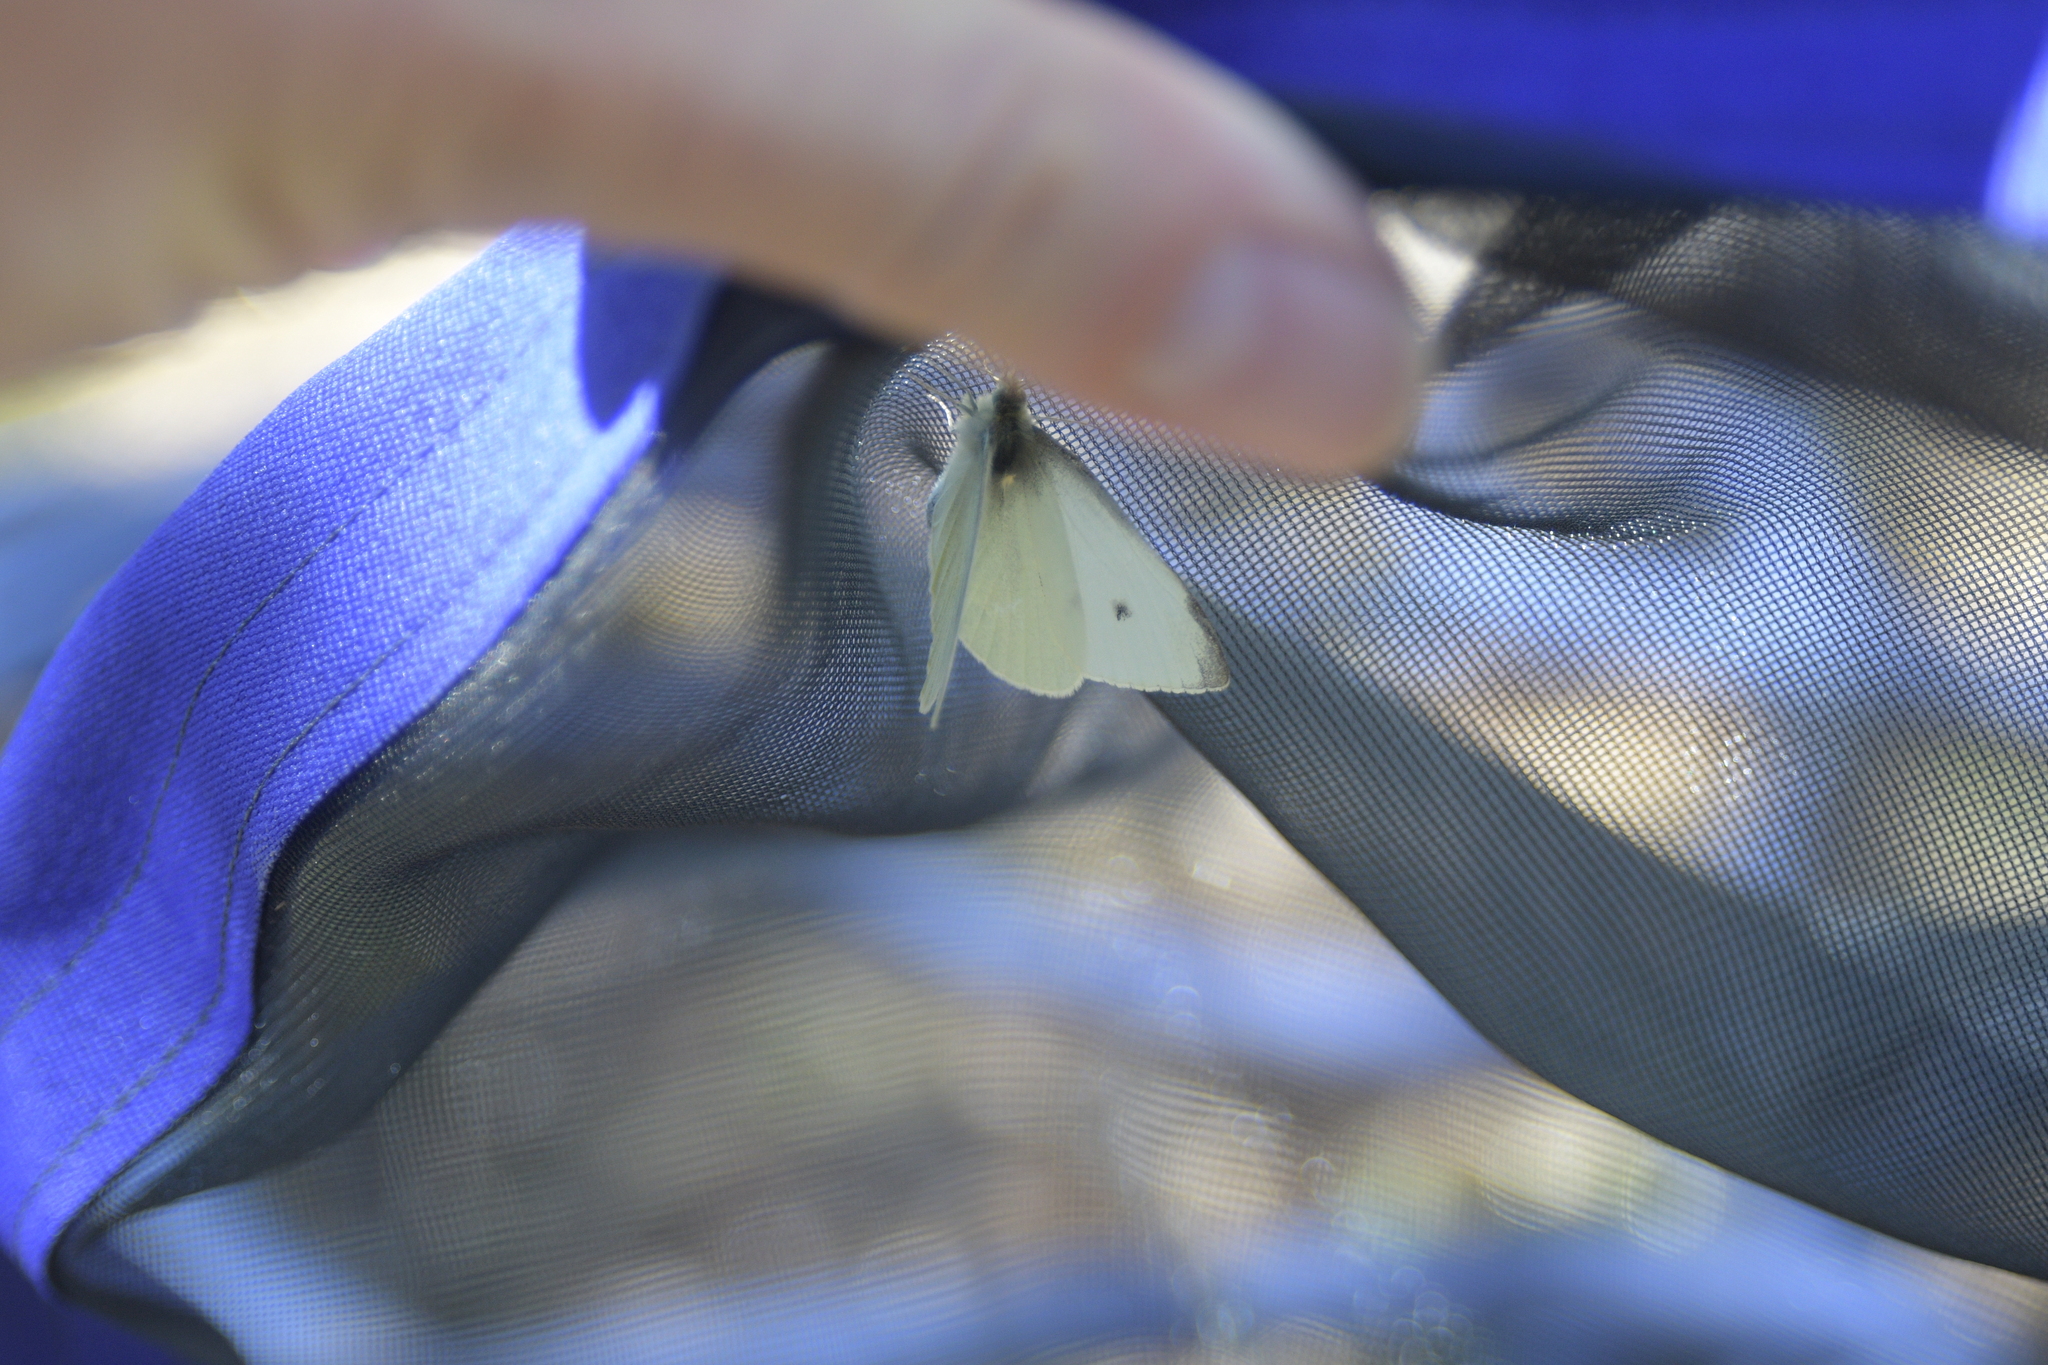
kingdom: Animalia
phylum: Arthropoda
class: Insecta
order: Lepidoptera
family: Pieridae
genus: Pieris
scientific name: Pieris rapae
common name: Small white
